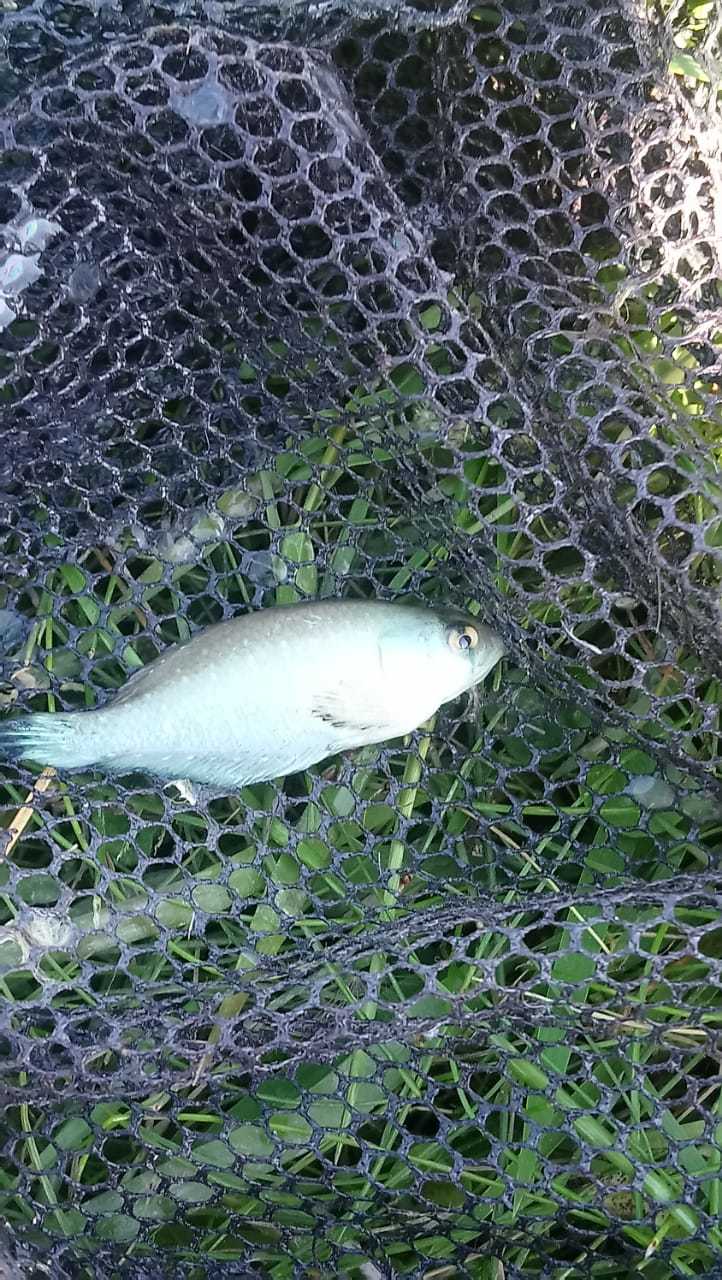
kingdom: Animalia
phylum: Chordata
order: Cyprinodontiformes
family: Rivulidae
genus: Austrolebias
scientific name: Austrolebias bellottii
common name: Argentine pearlfish
